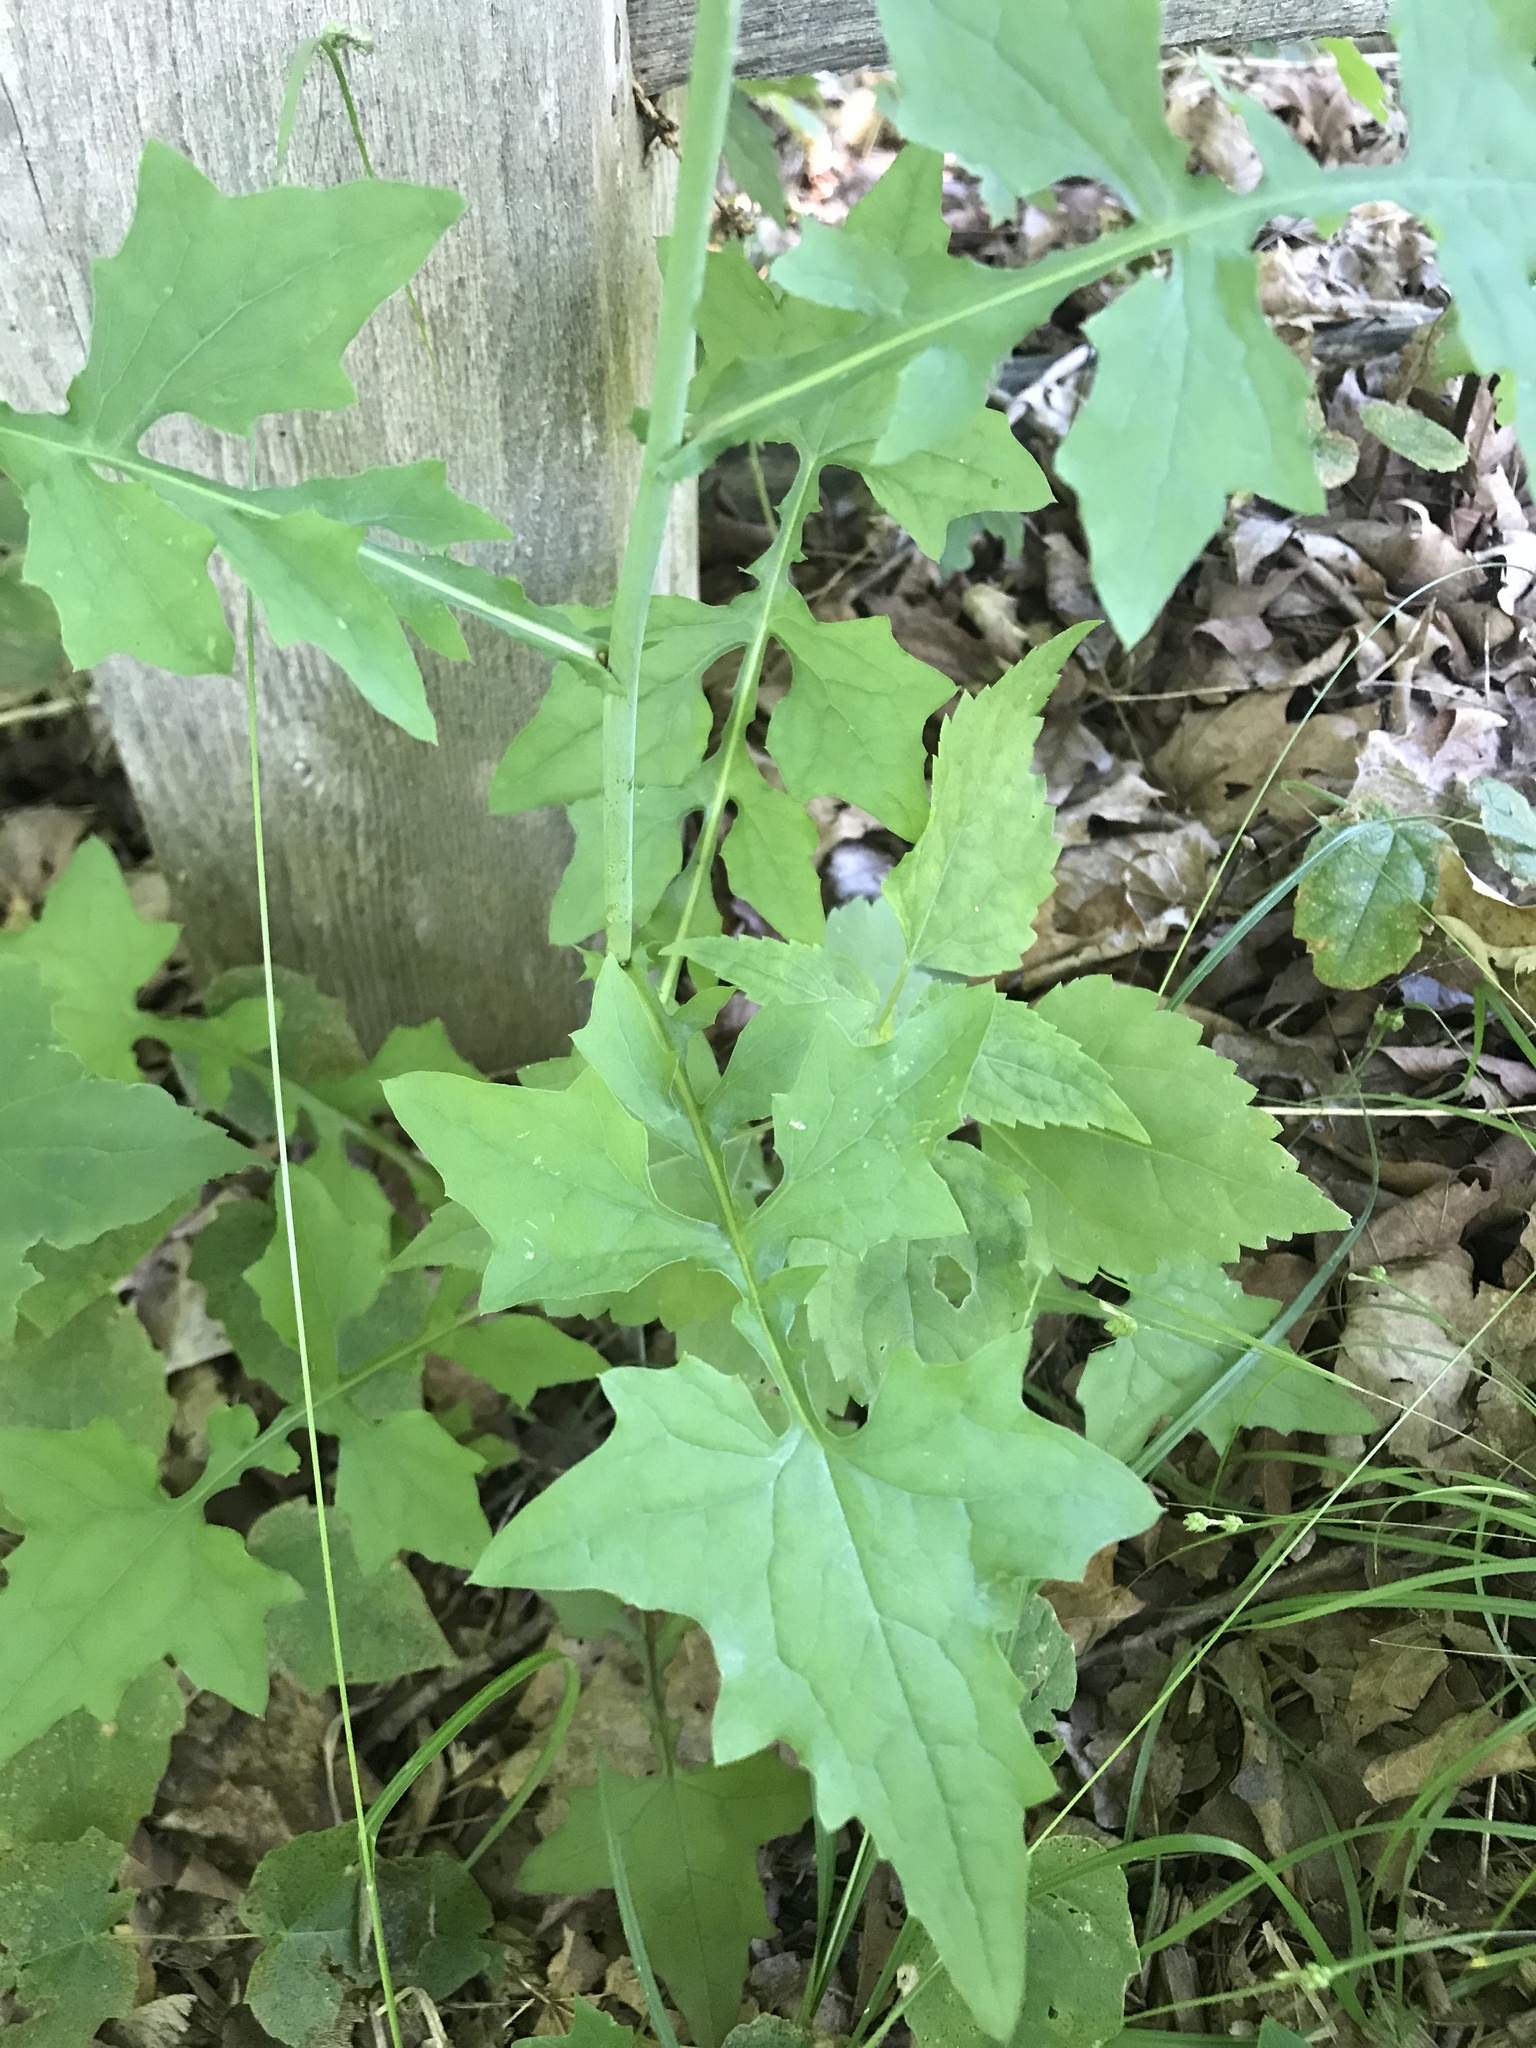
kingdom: Plantae
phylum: Tracheophyta
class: Magnoliopsida
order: Asterales
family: Asteraceae
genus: Mycelis
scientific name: Mycelis muralis
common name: Wall lettuce
